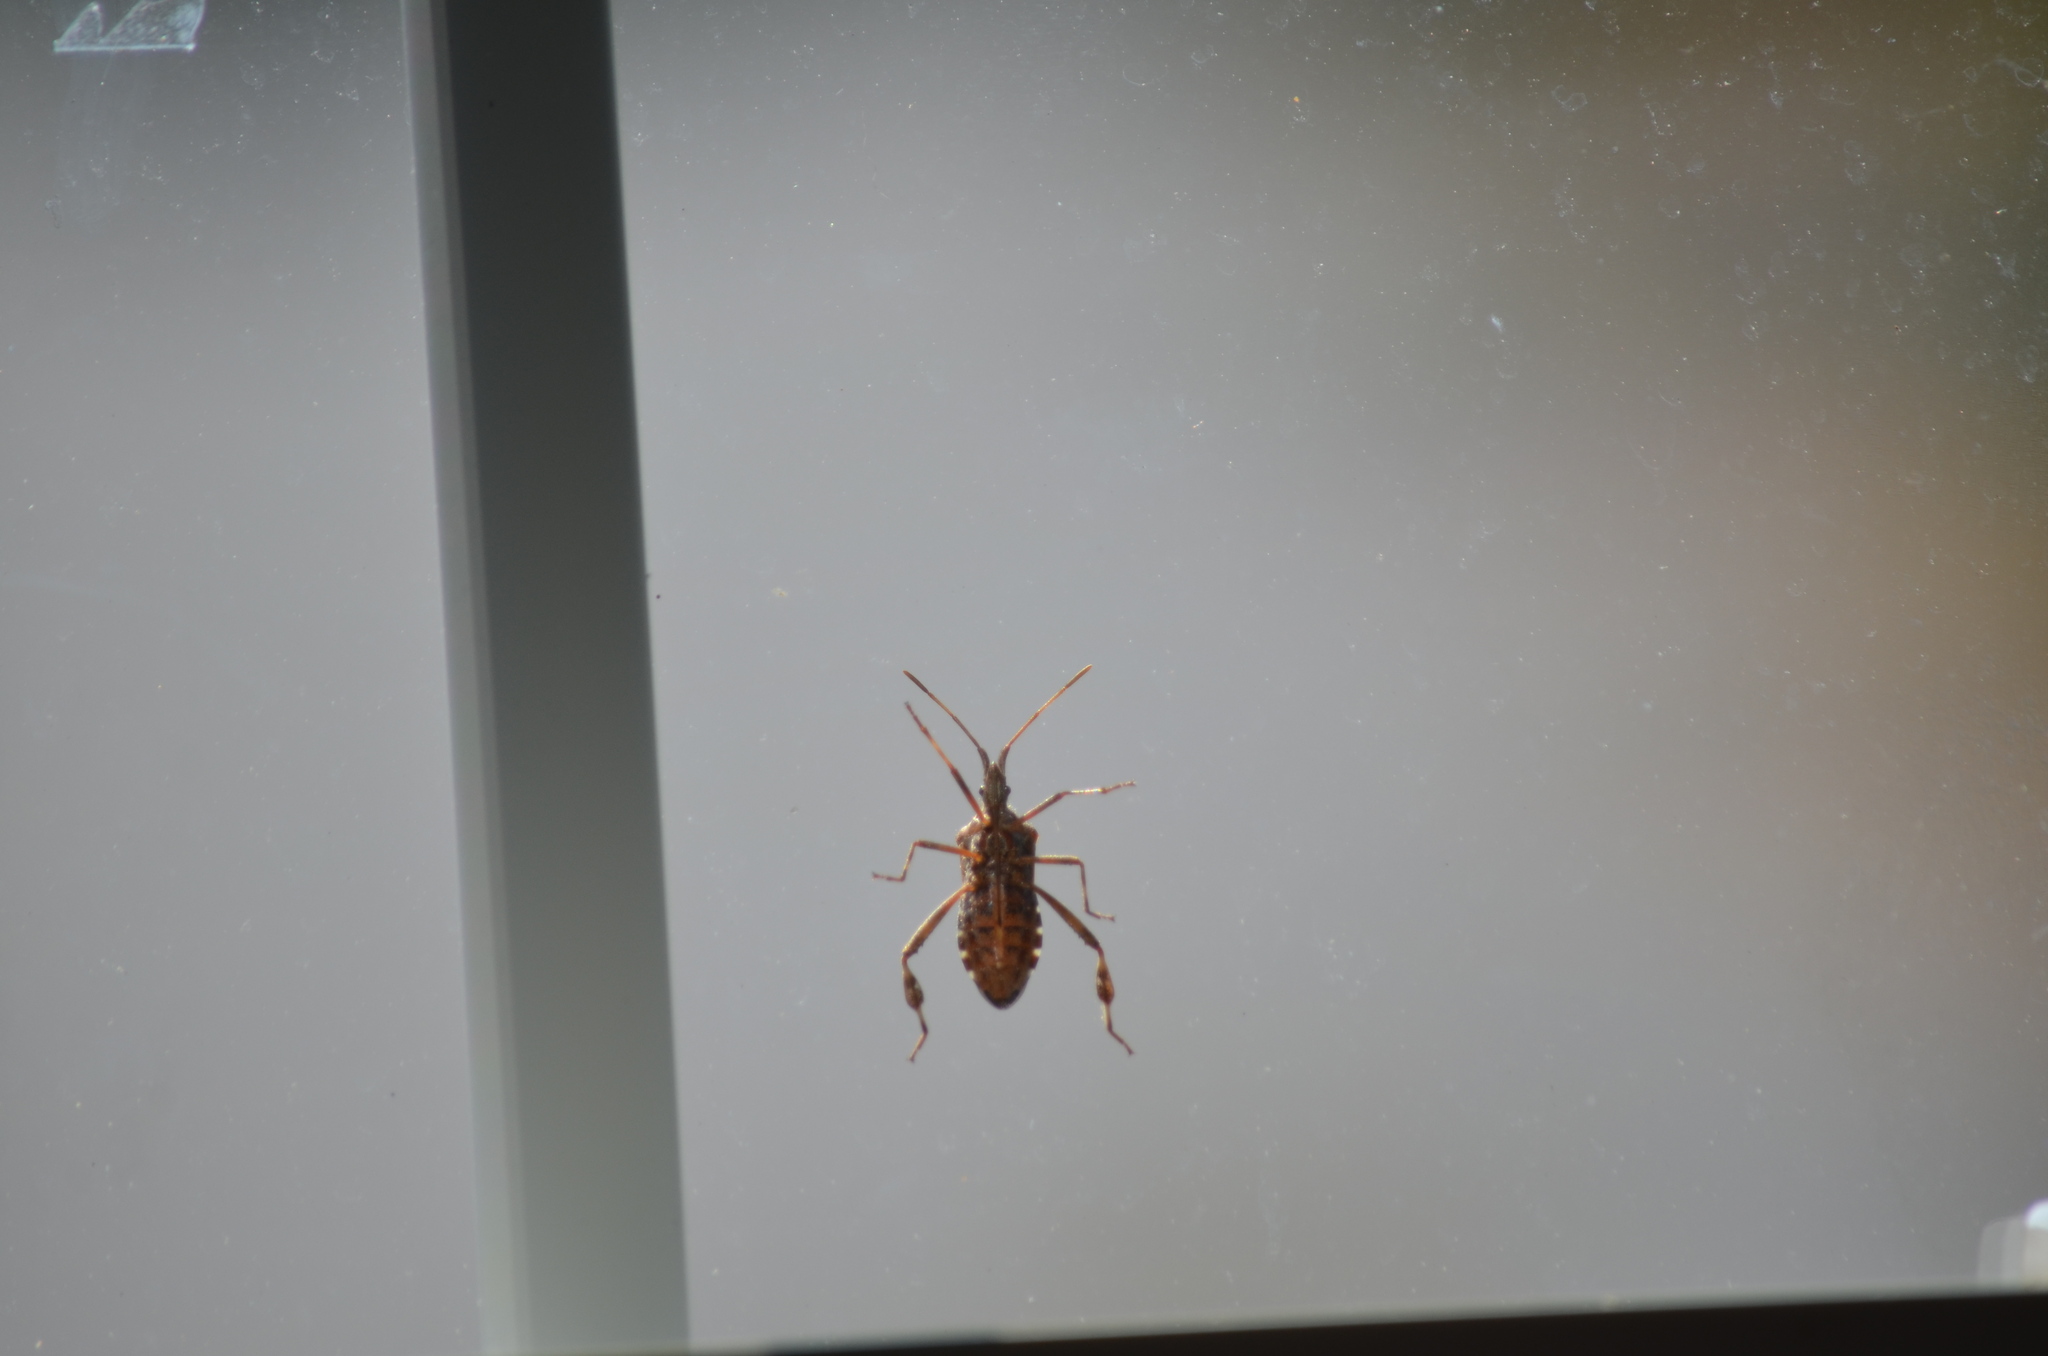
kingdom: Animalia
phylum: Arthropoda
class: Insecta
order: Hemiptera
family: Coreidae
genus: Leptoglossus
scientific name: Leptoglossus occidentalis
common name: Western conifer-seed bug
